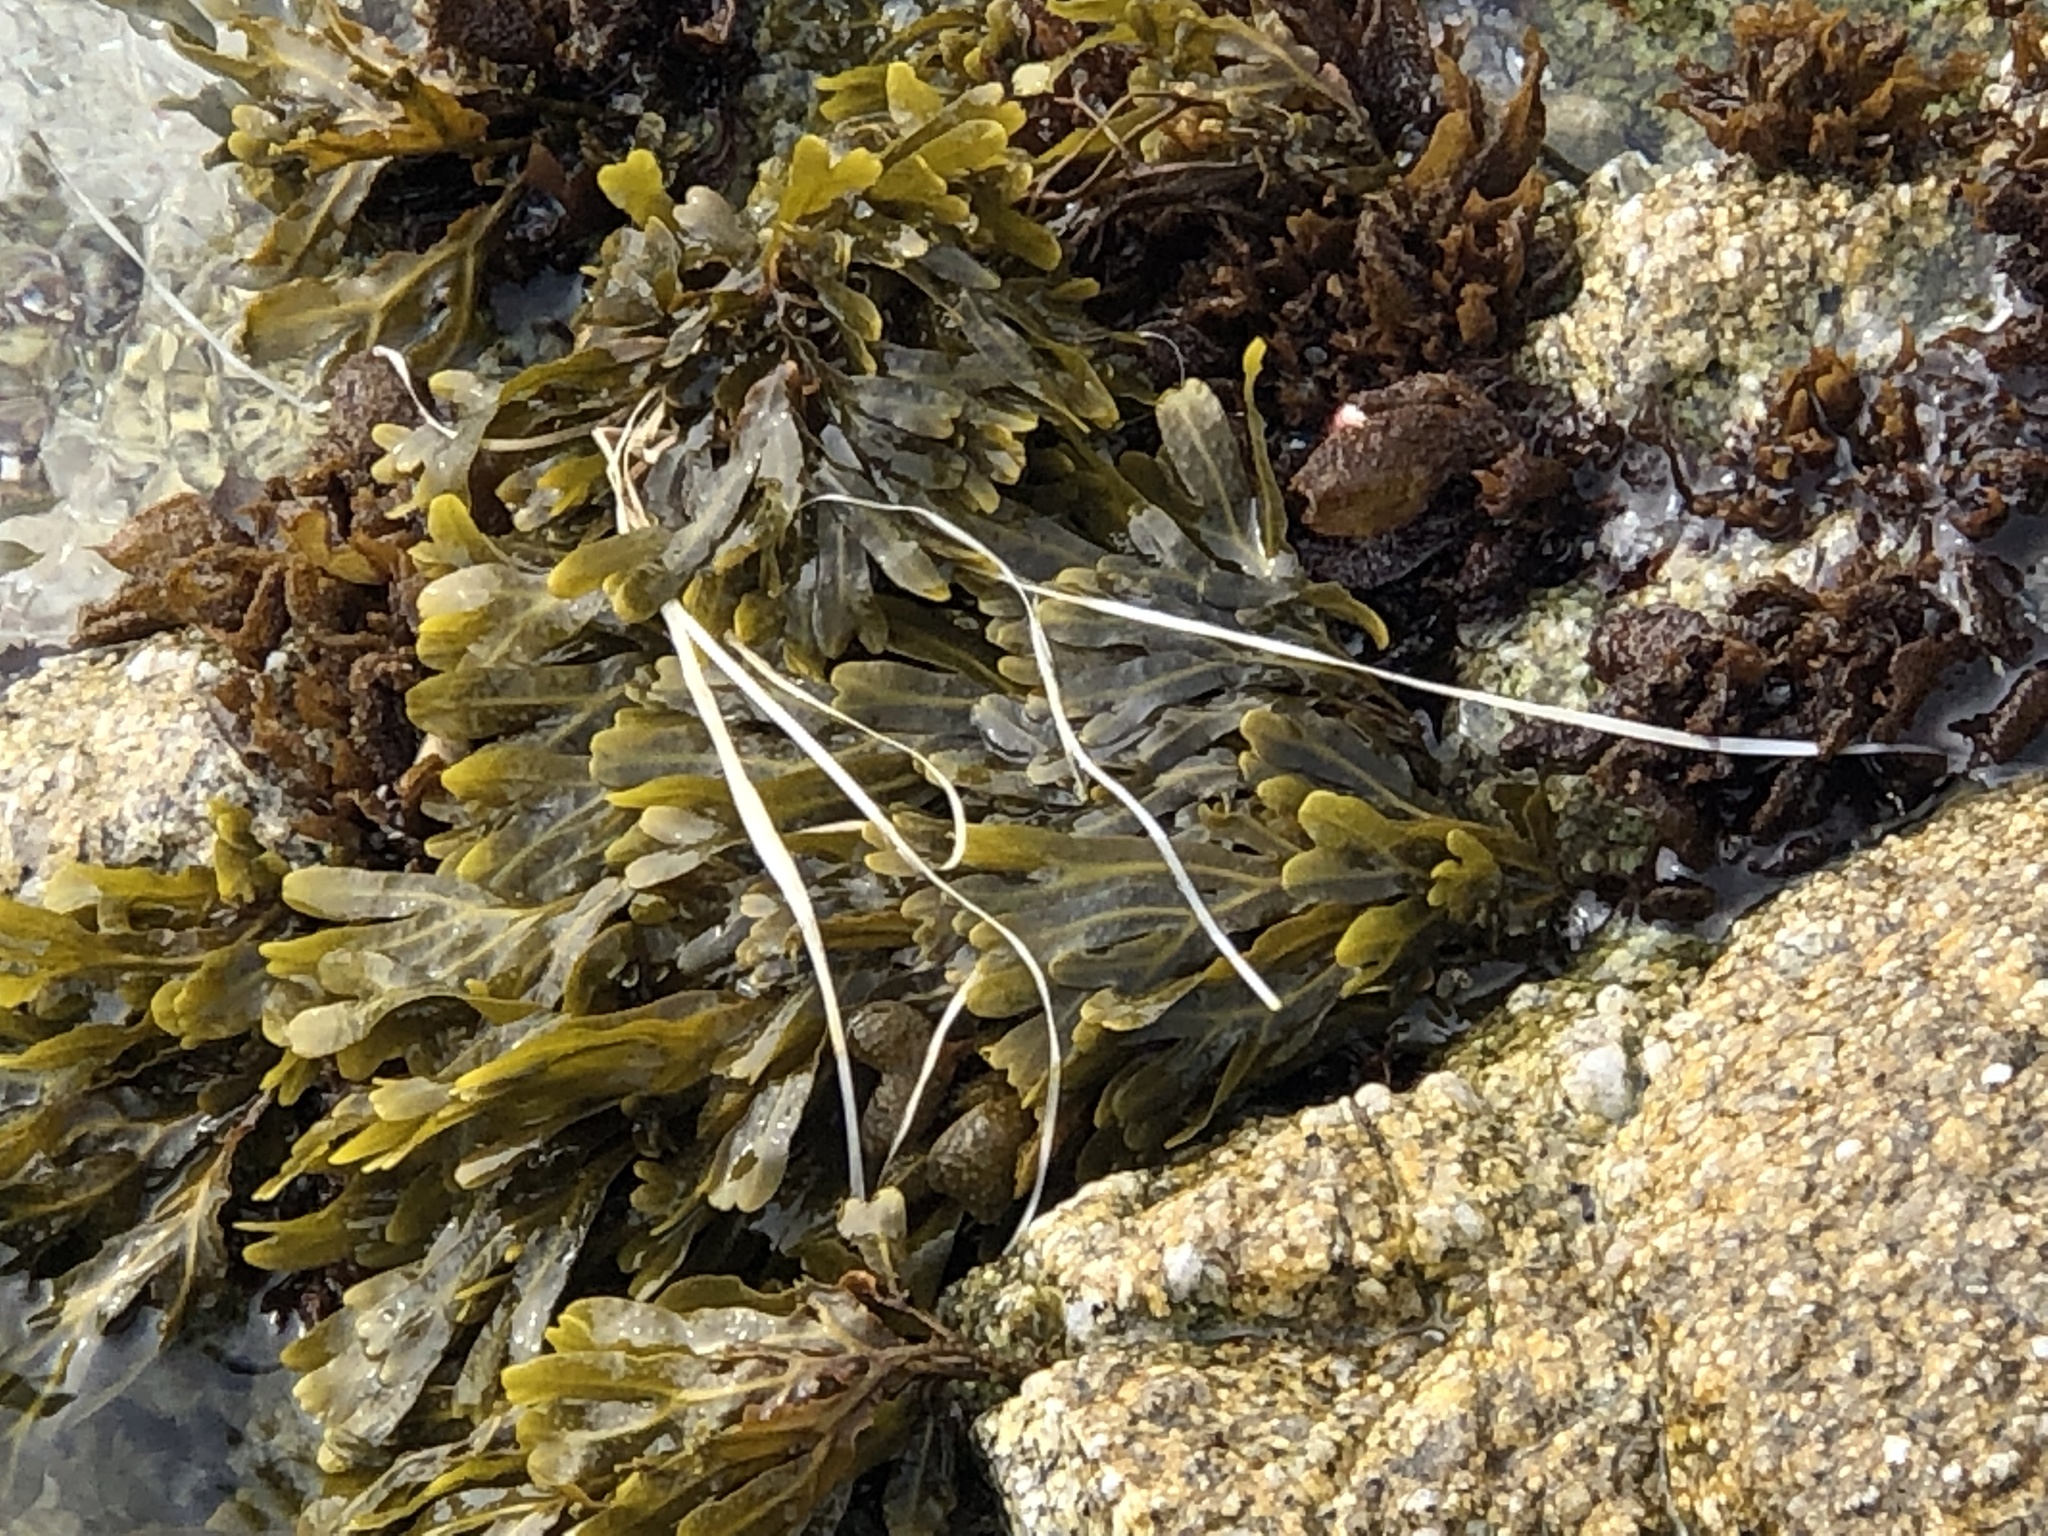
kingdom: Chromista
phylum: Ochrophyta
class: Phaeophyceae
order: Fucales
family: Fucaceae
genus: Fucus
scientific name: Fucus distichus
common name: Rockweed
